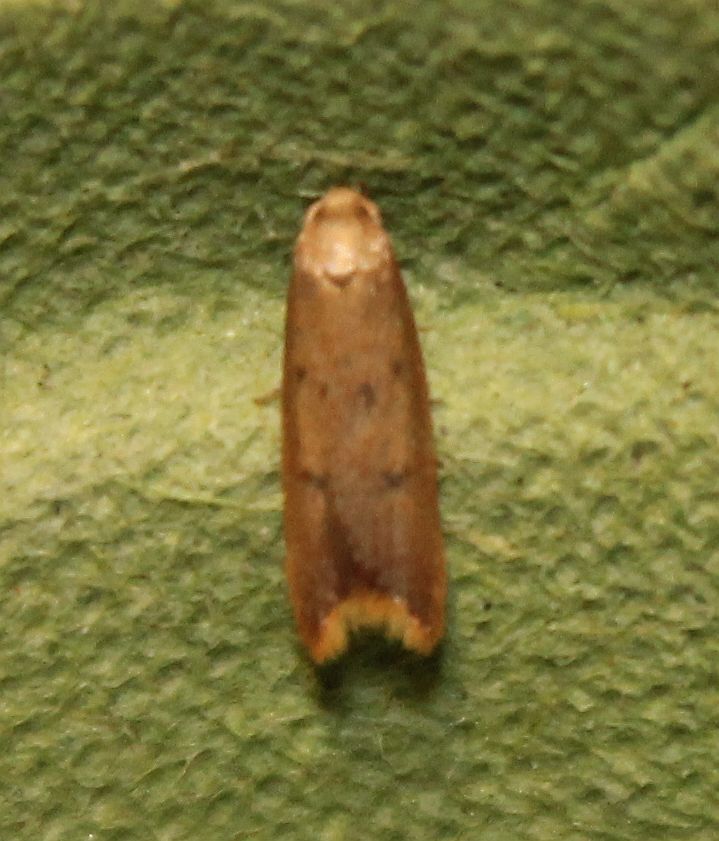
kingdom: Animalia
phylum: Arthropoda
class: Insecta
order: Lepidoptera
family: Oecophoridae
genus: Tachystola
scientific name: Tachystola acroxantha
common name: Ruddy streak
